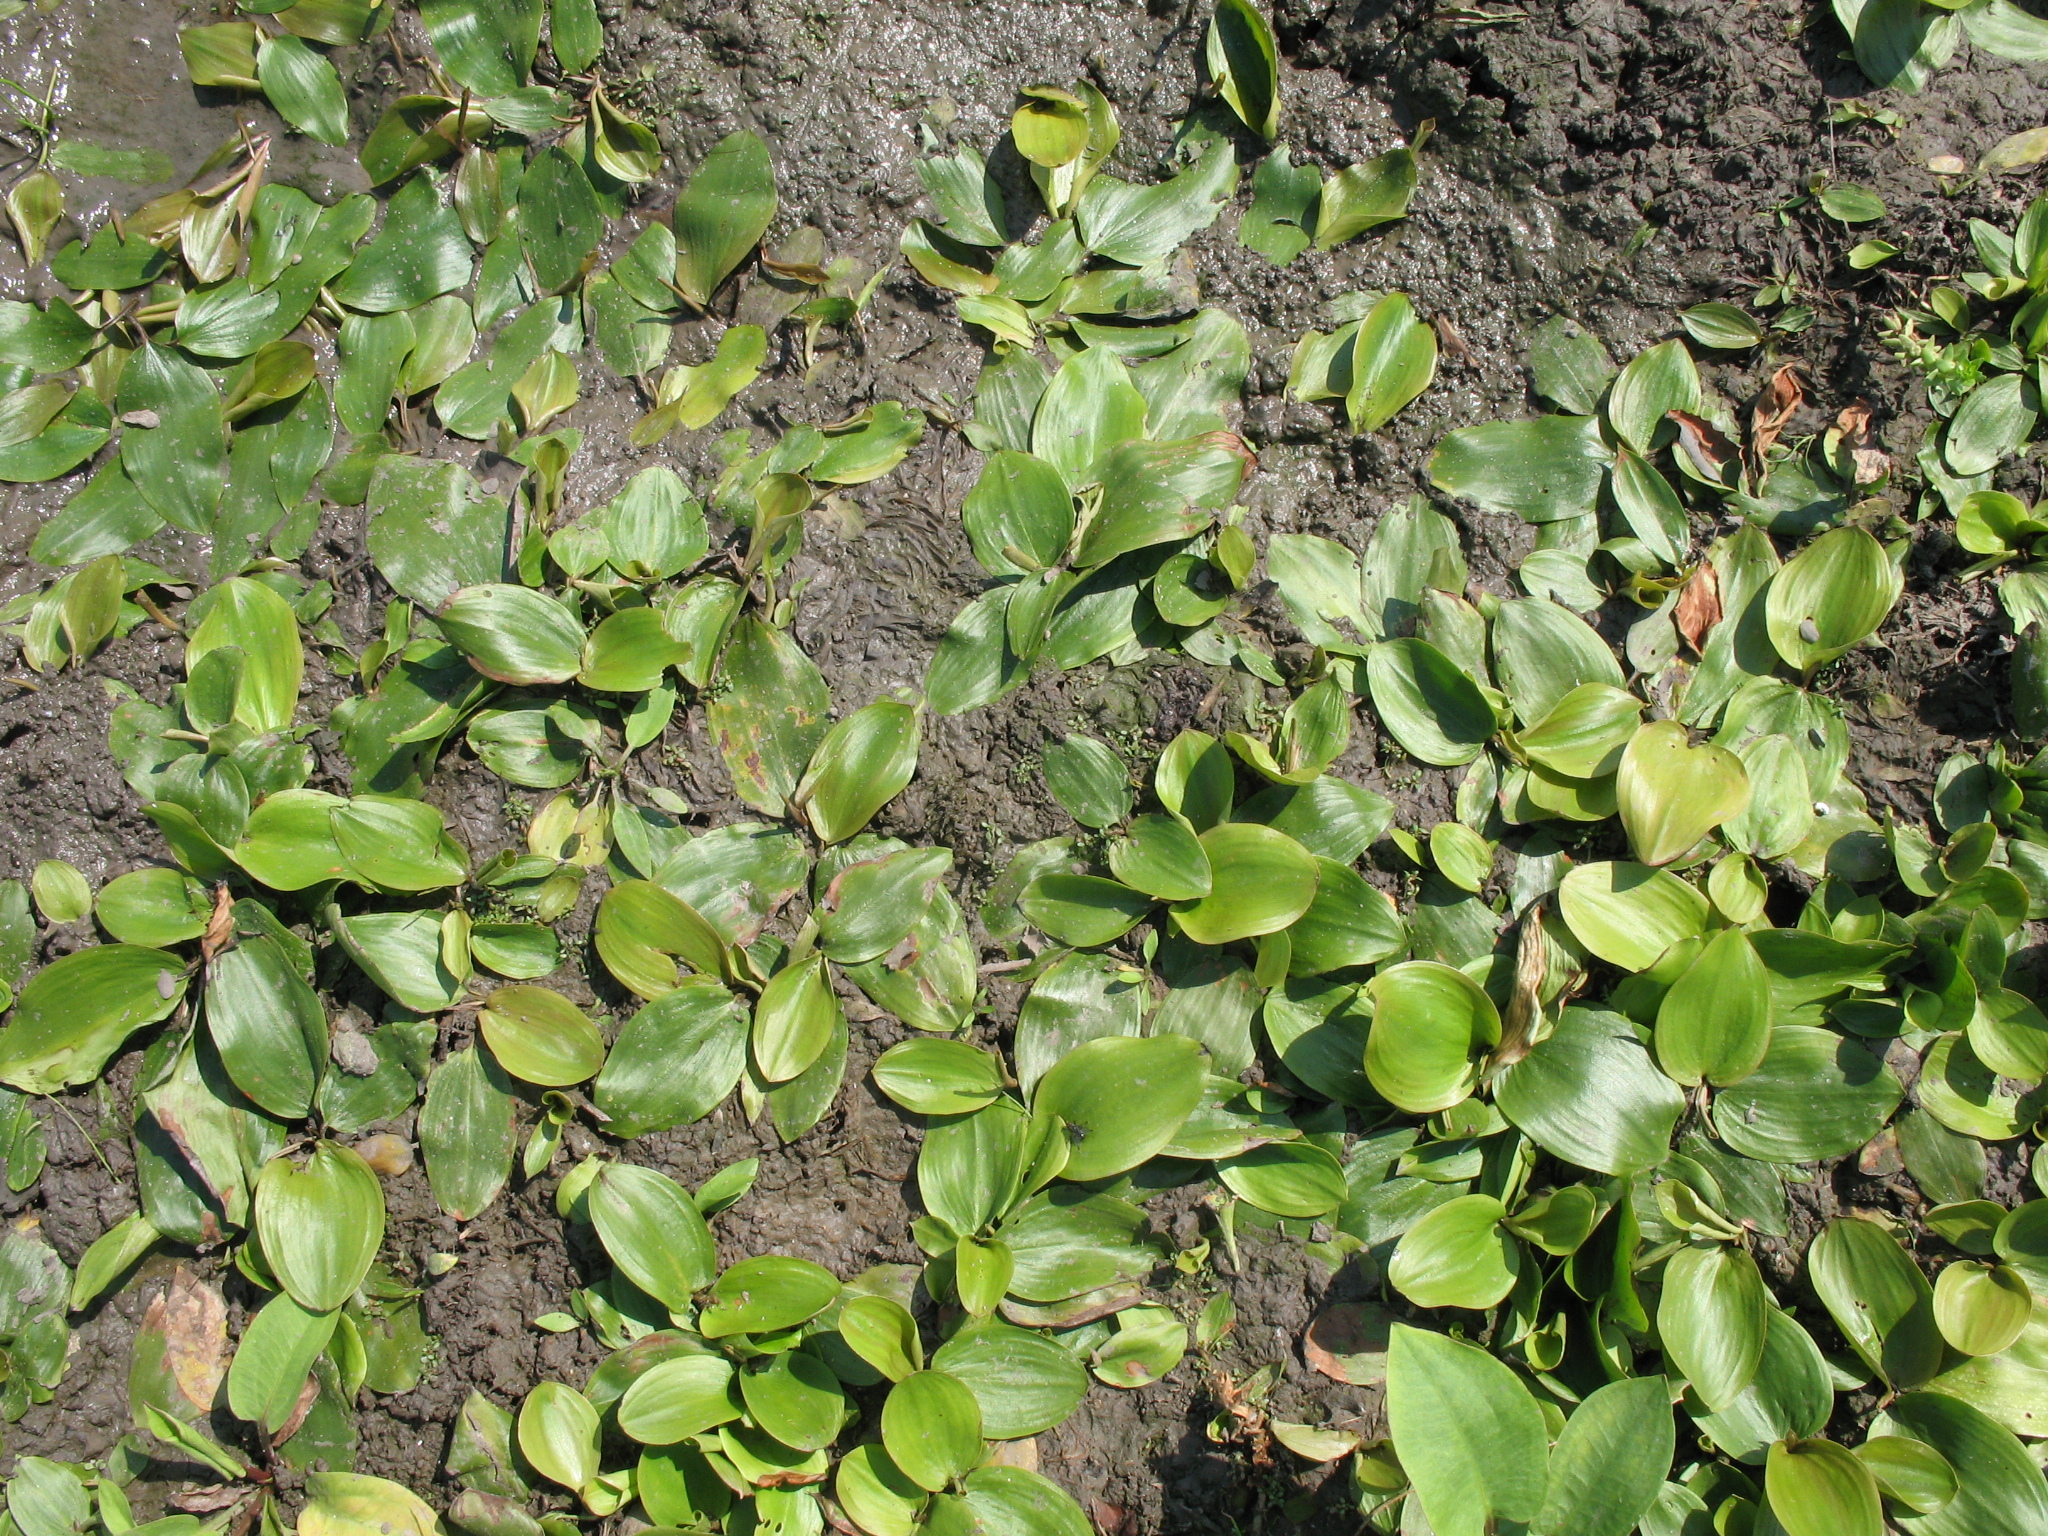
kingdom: Plantae
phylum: Tracheophyta
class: Liliopsida
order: Alismatales
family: Potamogetonaceae
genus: Potamogeton
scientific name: Potamogeton gramineus
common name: Various-leaved pondweed
